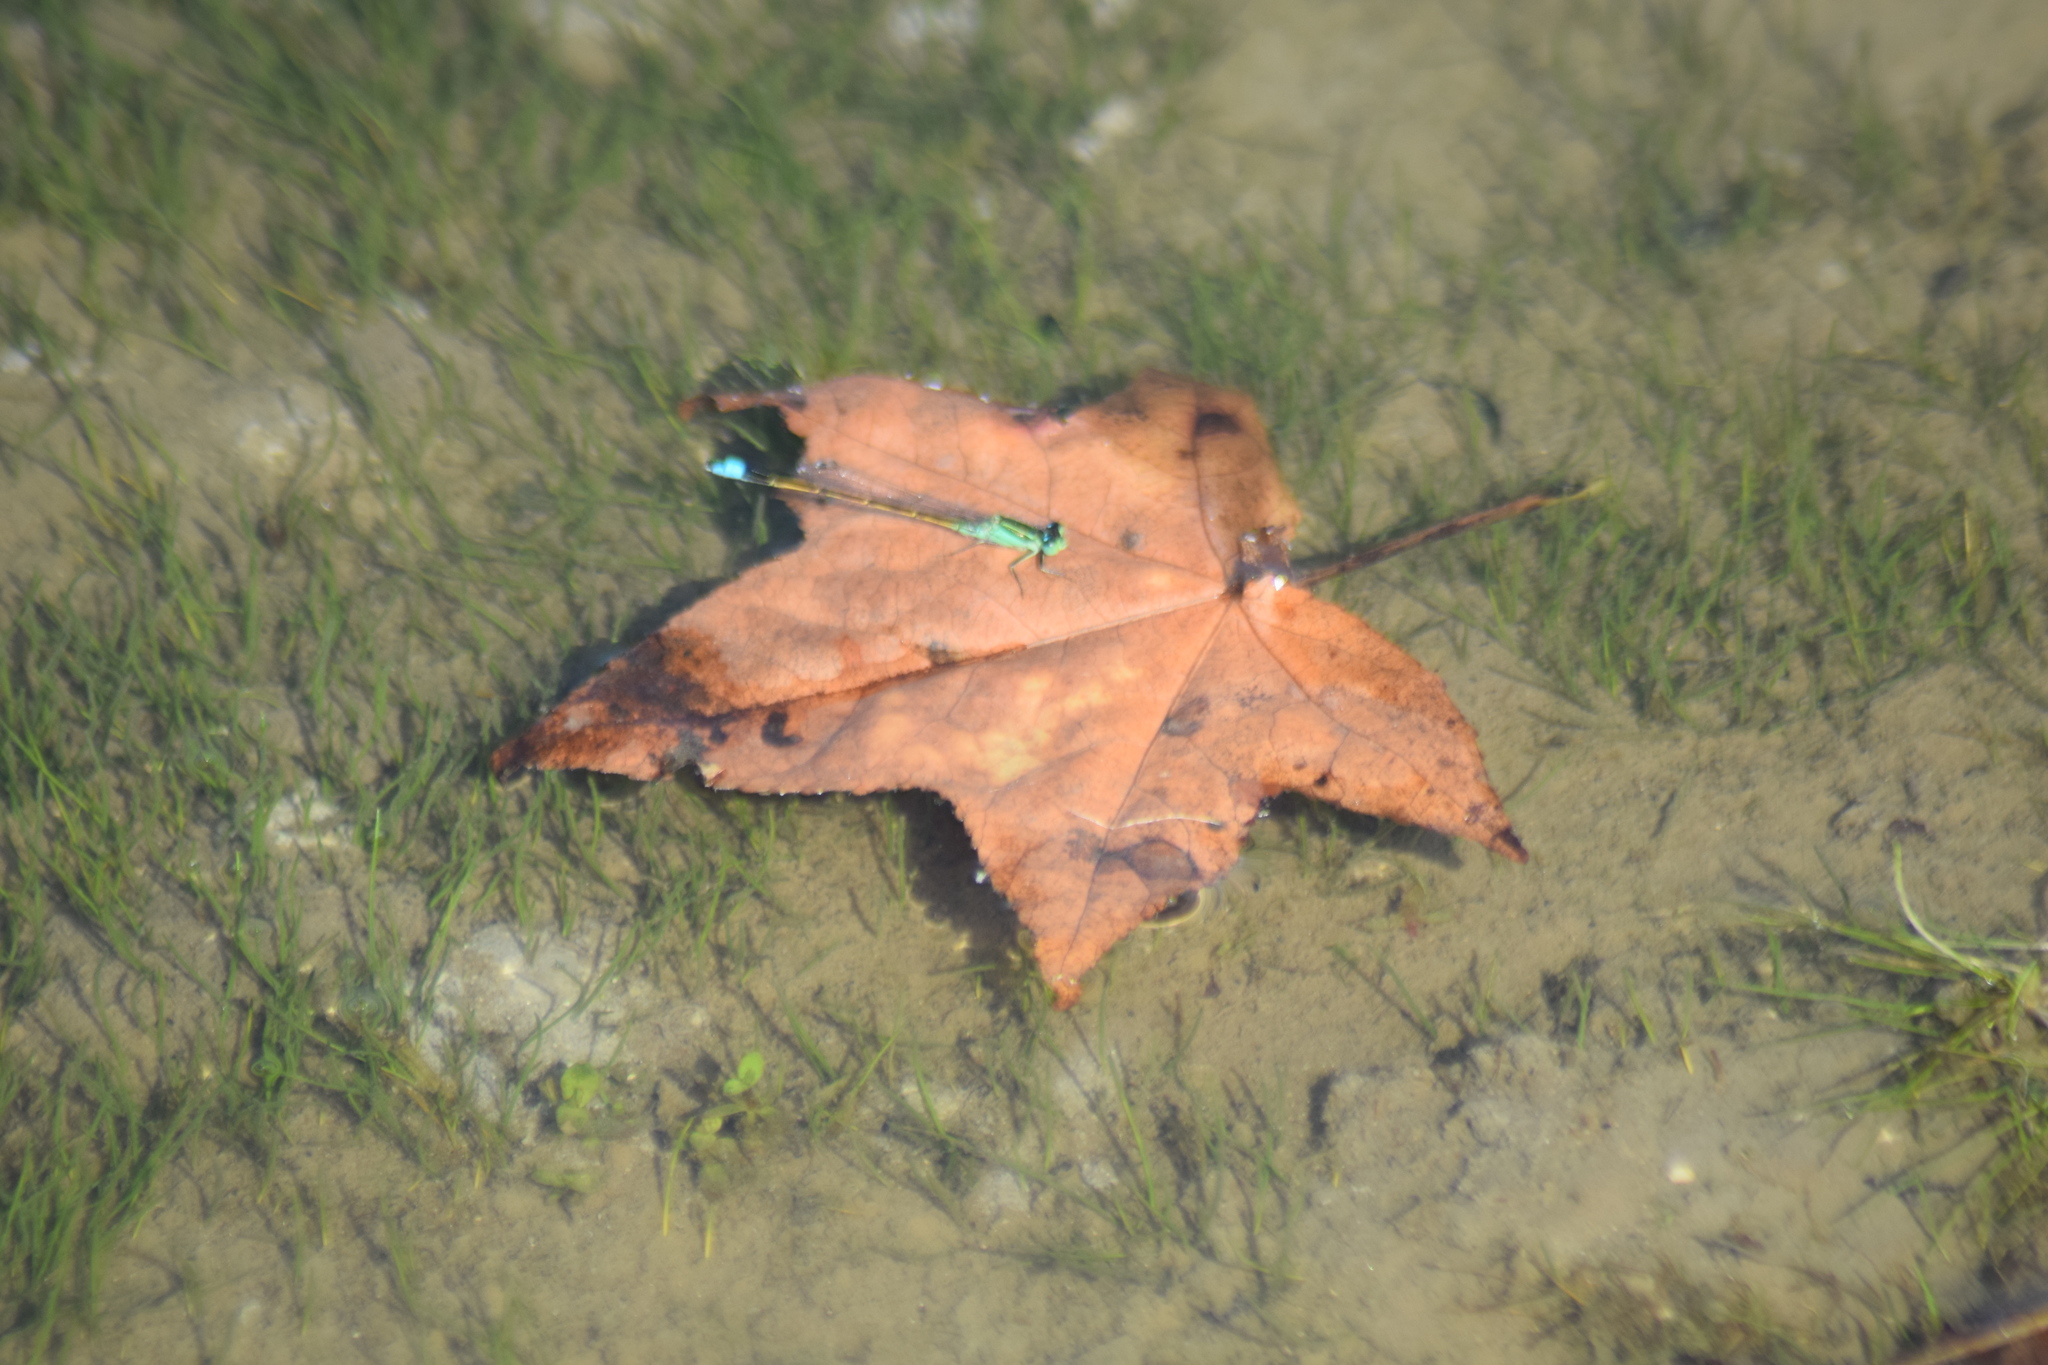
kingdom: Animalia
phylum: Arthropoda
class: Insecta
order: Odonata
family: Coenagrionidae
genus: Ischnura
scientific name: Ischnura ramburii
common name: Rambur's forktail
